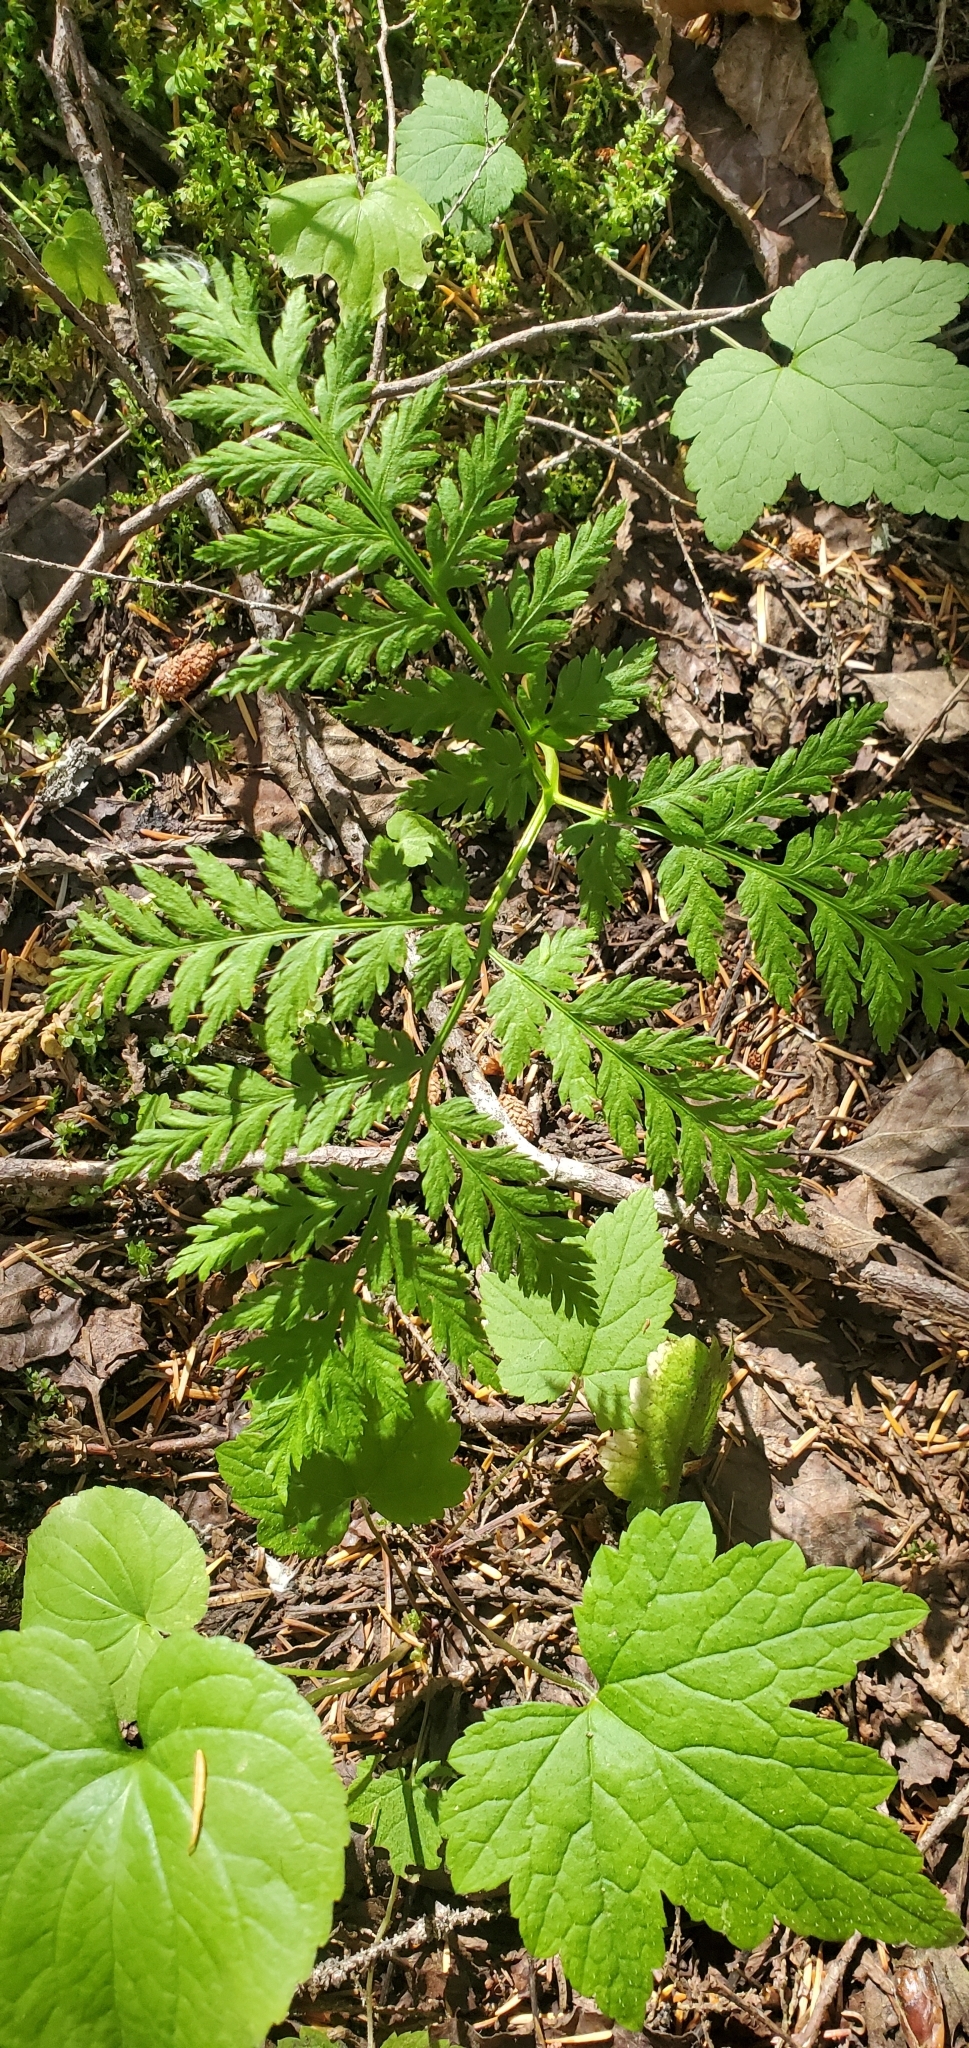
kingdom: Plantae
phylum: Tracheophyta
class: Polypodiopsida
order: Ophioglossales
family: Ophioglossaceae
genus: Botrypus
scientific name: Botrypus virginianus
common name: Common grapefern
